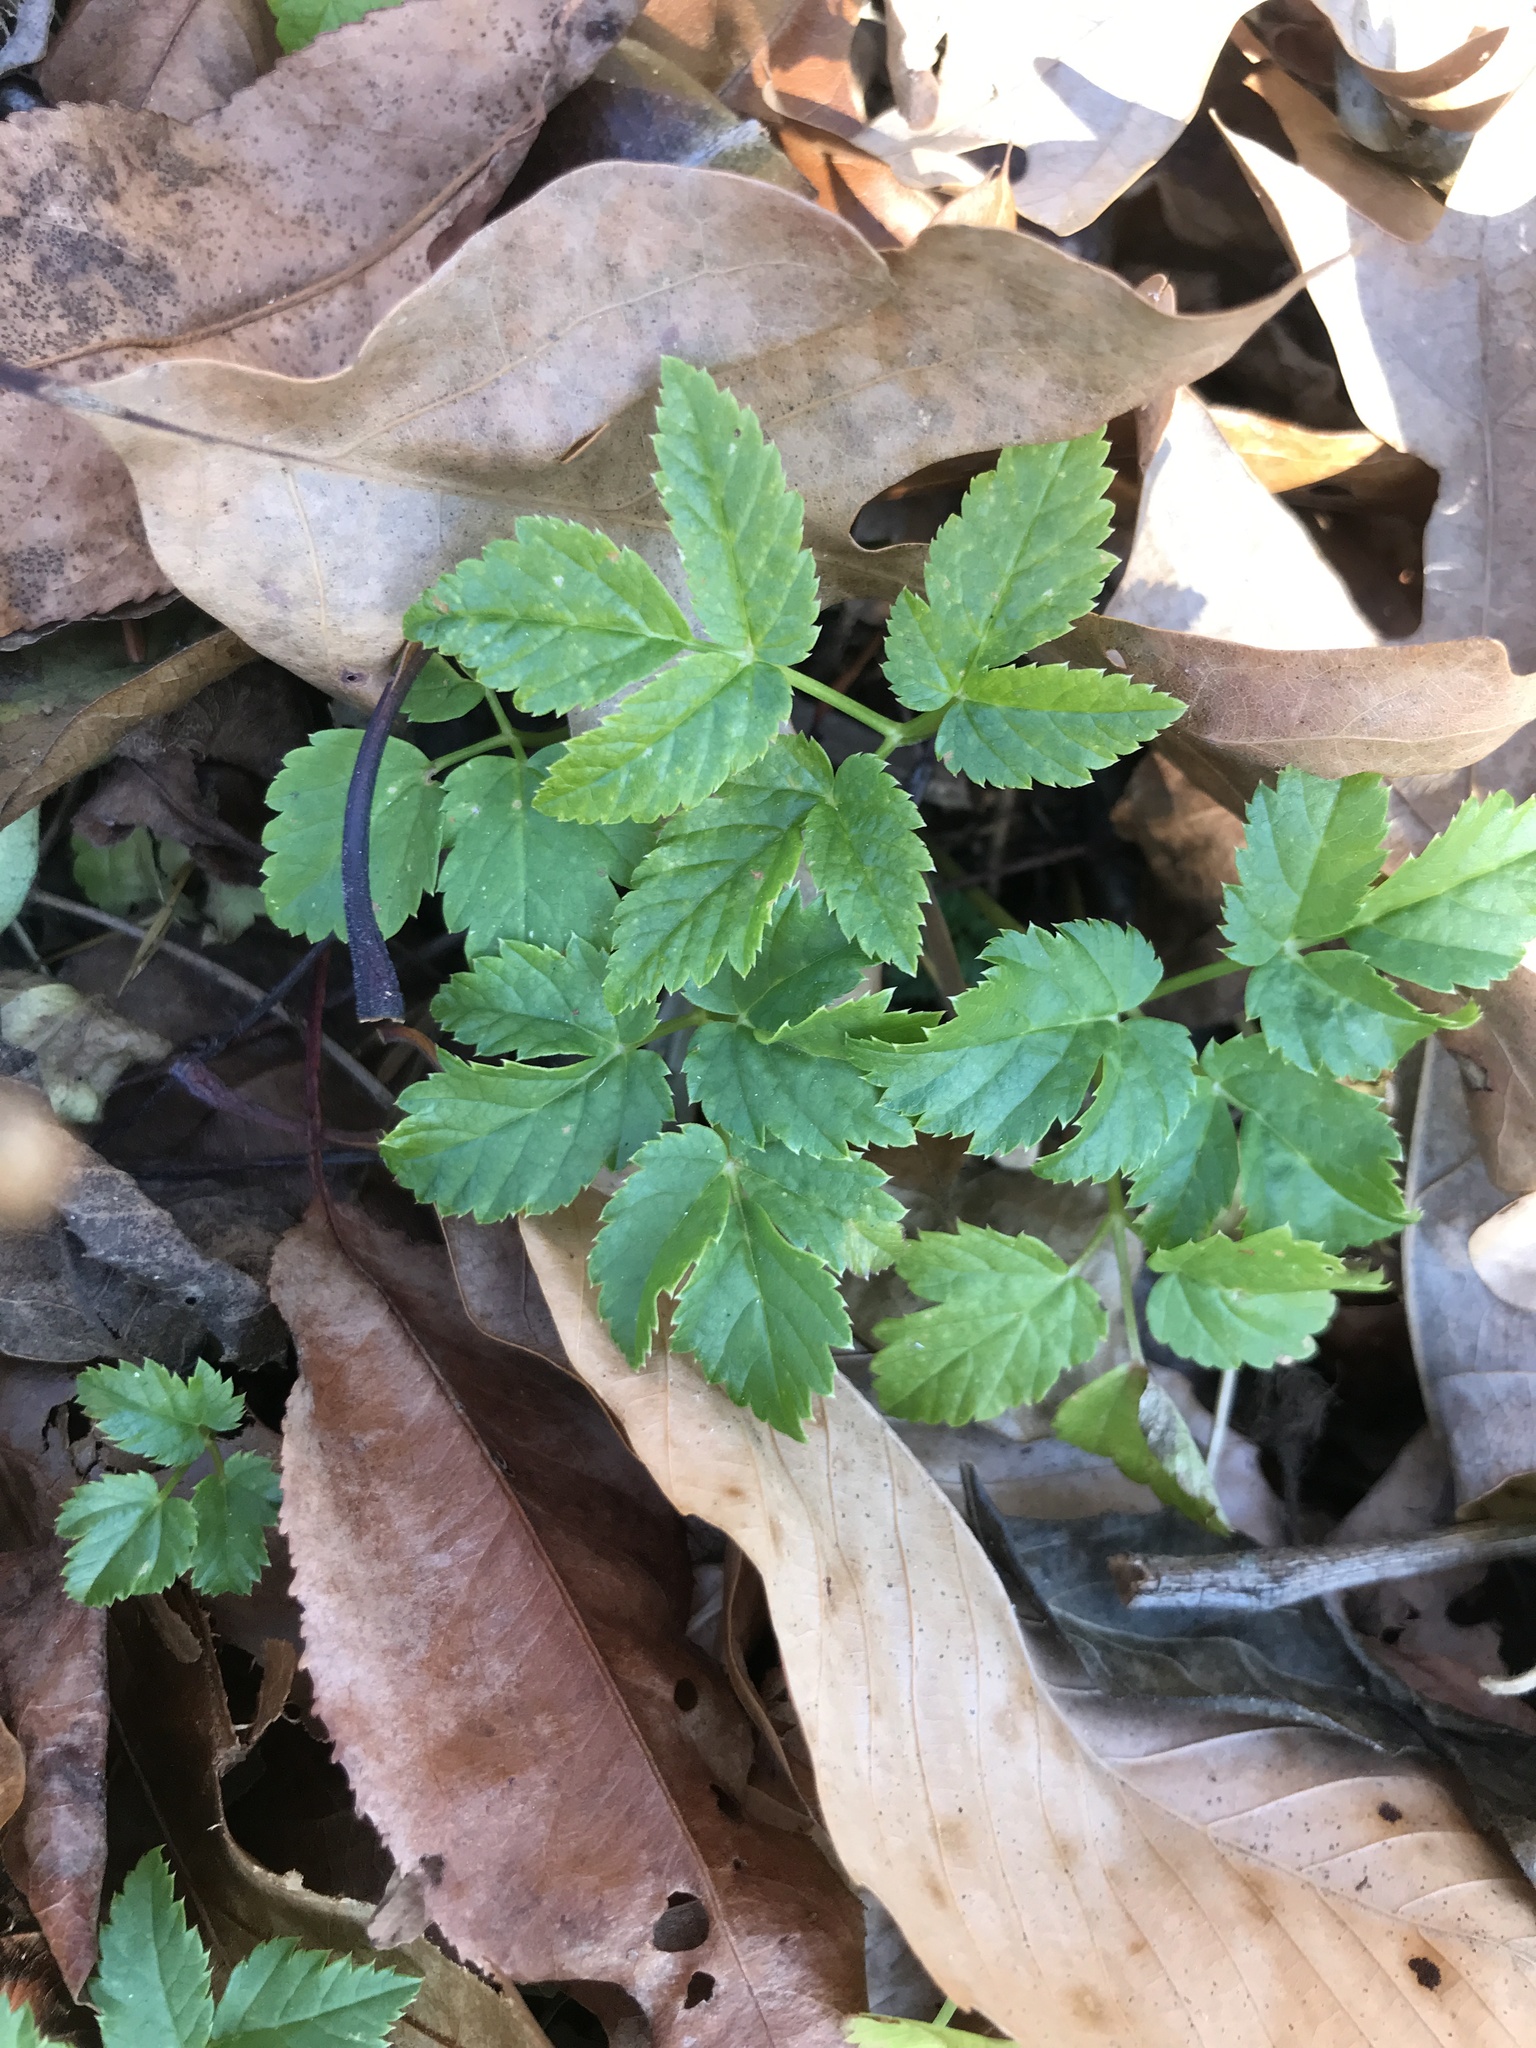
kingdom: Plantae
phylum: Tracheophyta
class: Magnoliopsida
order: Apiales
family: Apiaceae
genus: Aegopodium
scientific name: Aegopodium podagraria
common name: Ground-elder
